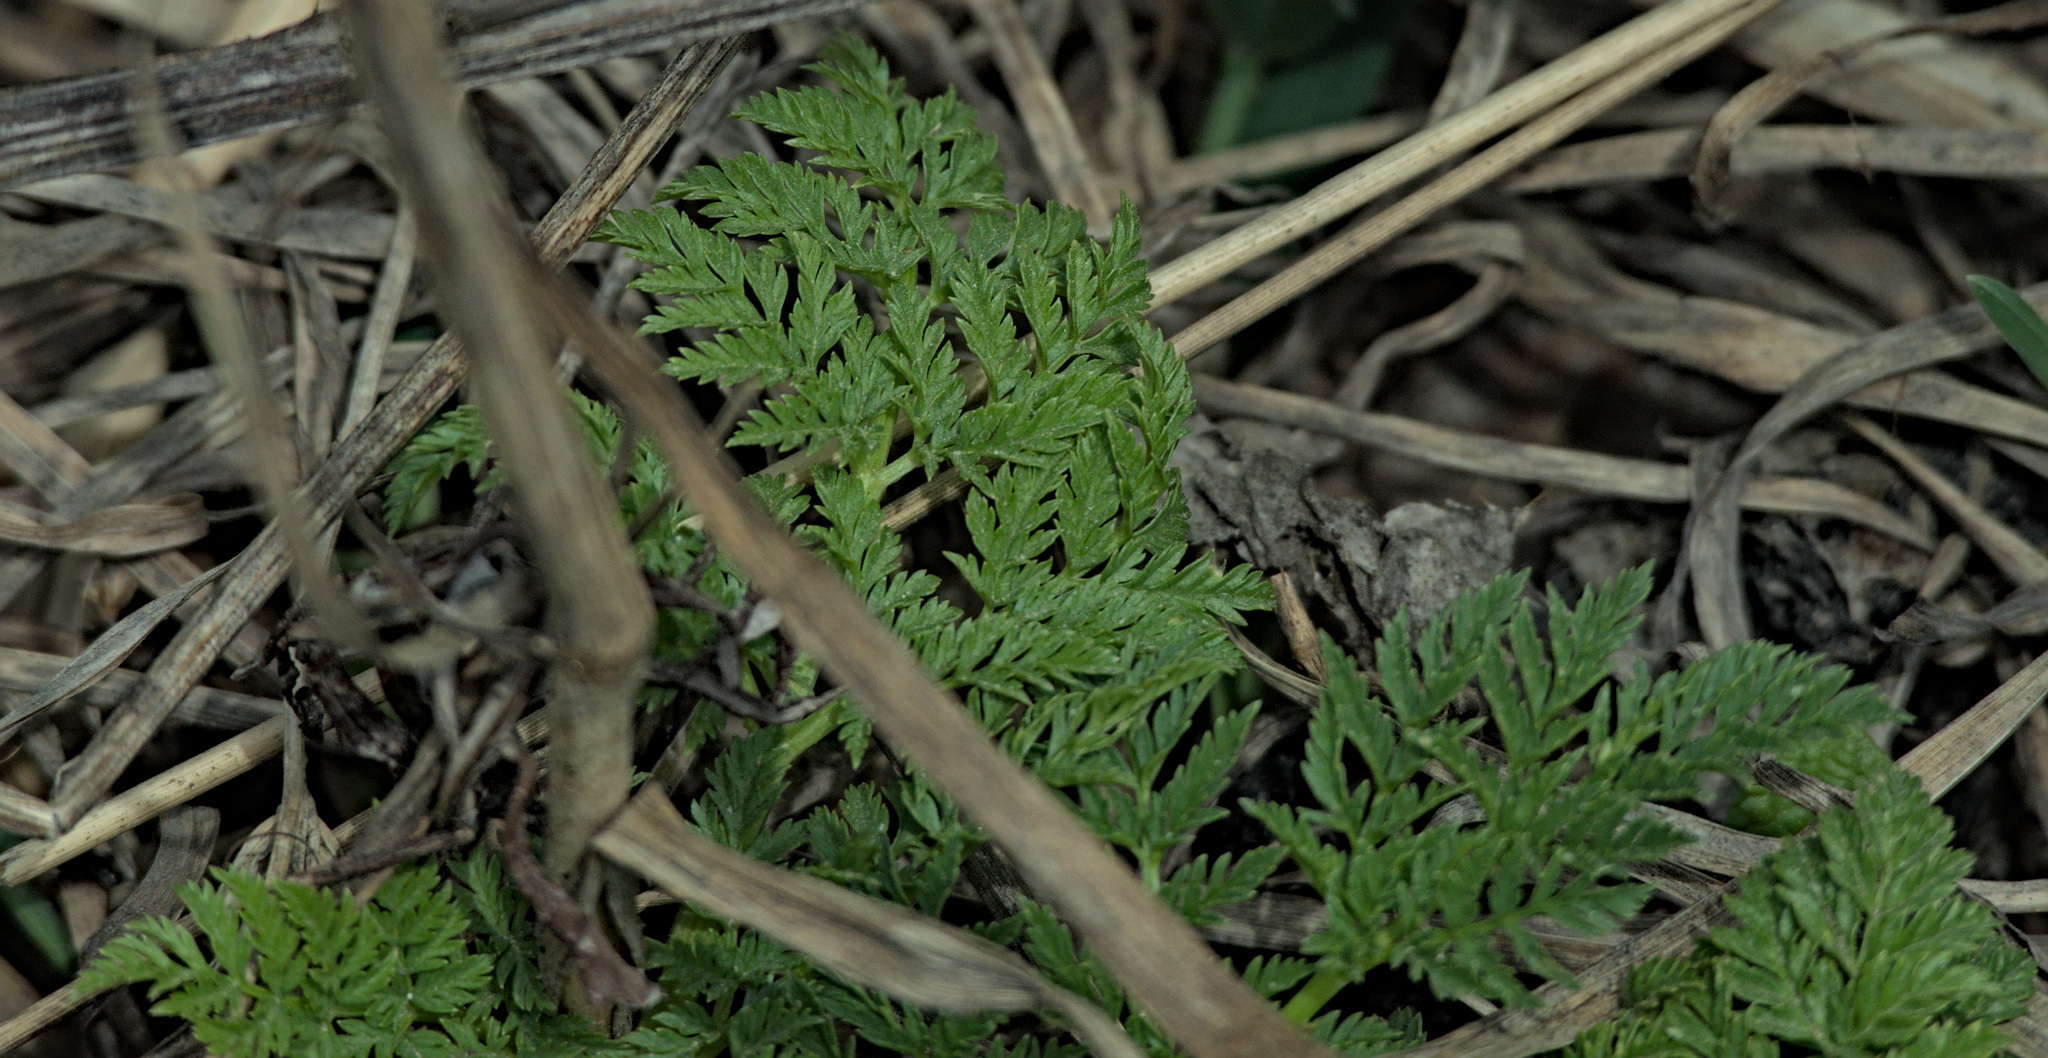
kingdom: Plantae
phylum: Tracheophyta
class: Magnoliopsida
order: Apiales
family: Apiaceae
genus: Anthriscus
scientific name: Anthriscus sylvestris
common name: Cow parsley
